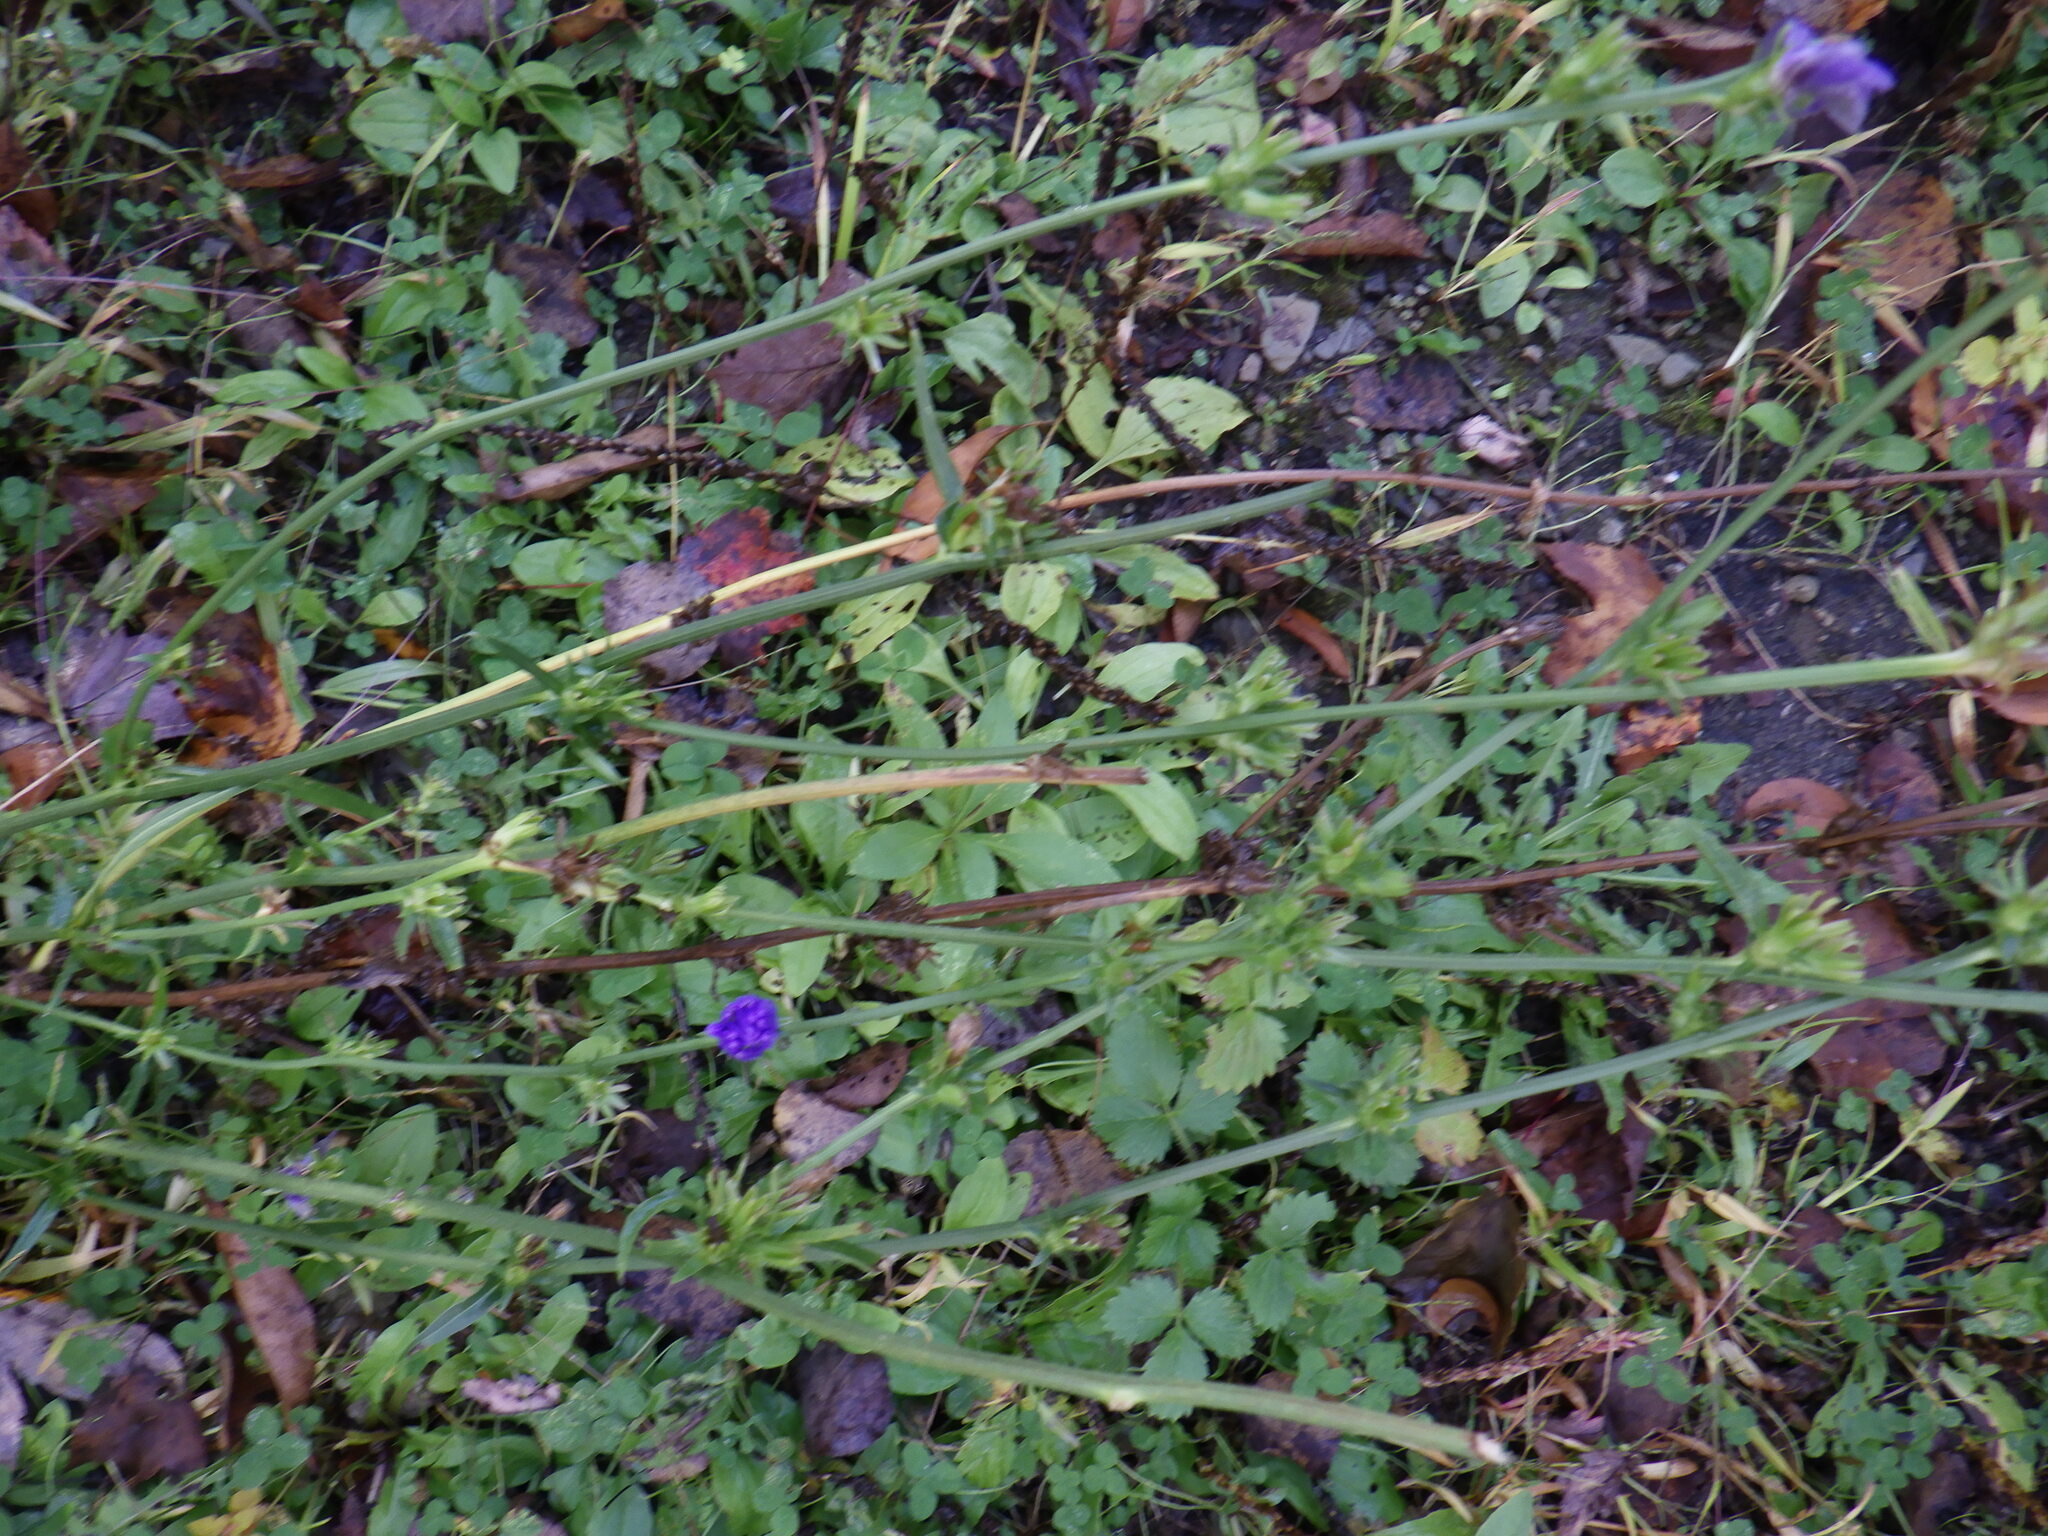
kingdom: Plantae
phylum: Tracheophyta
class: Magnoliopsida
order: Asterales
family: Asteraceae
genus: Cichorium
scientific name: Cichorium intybus
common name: Chicory
